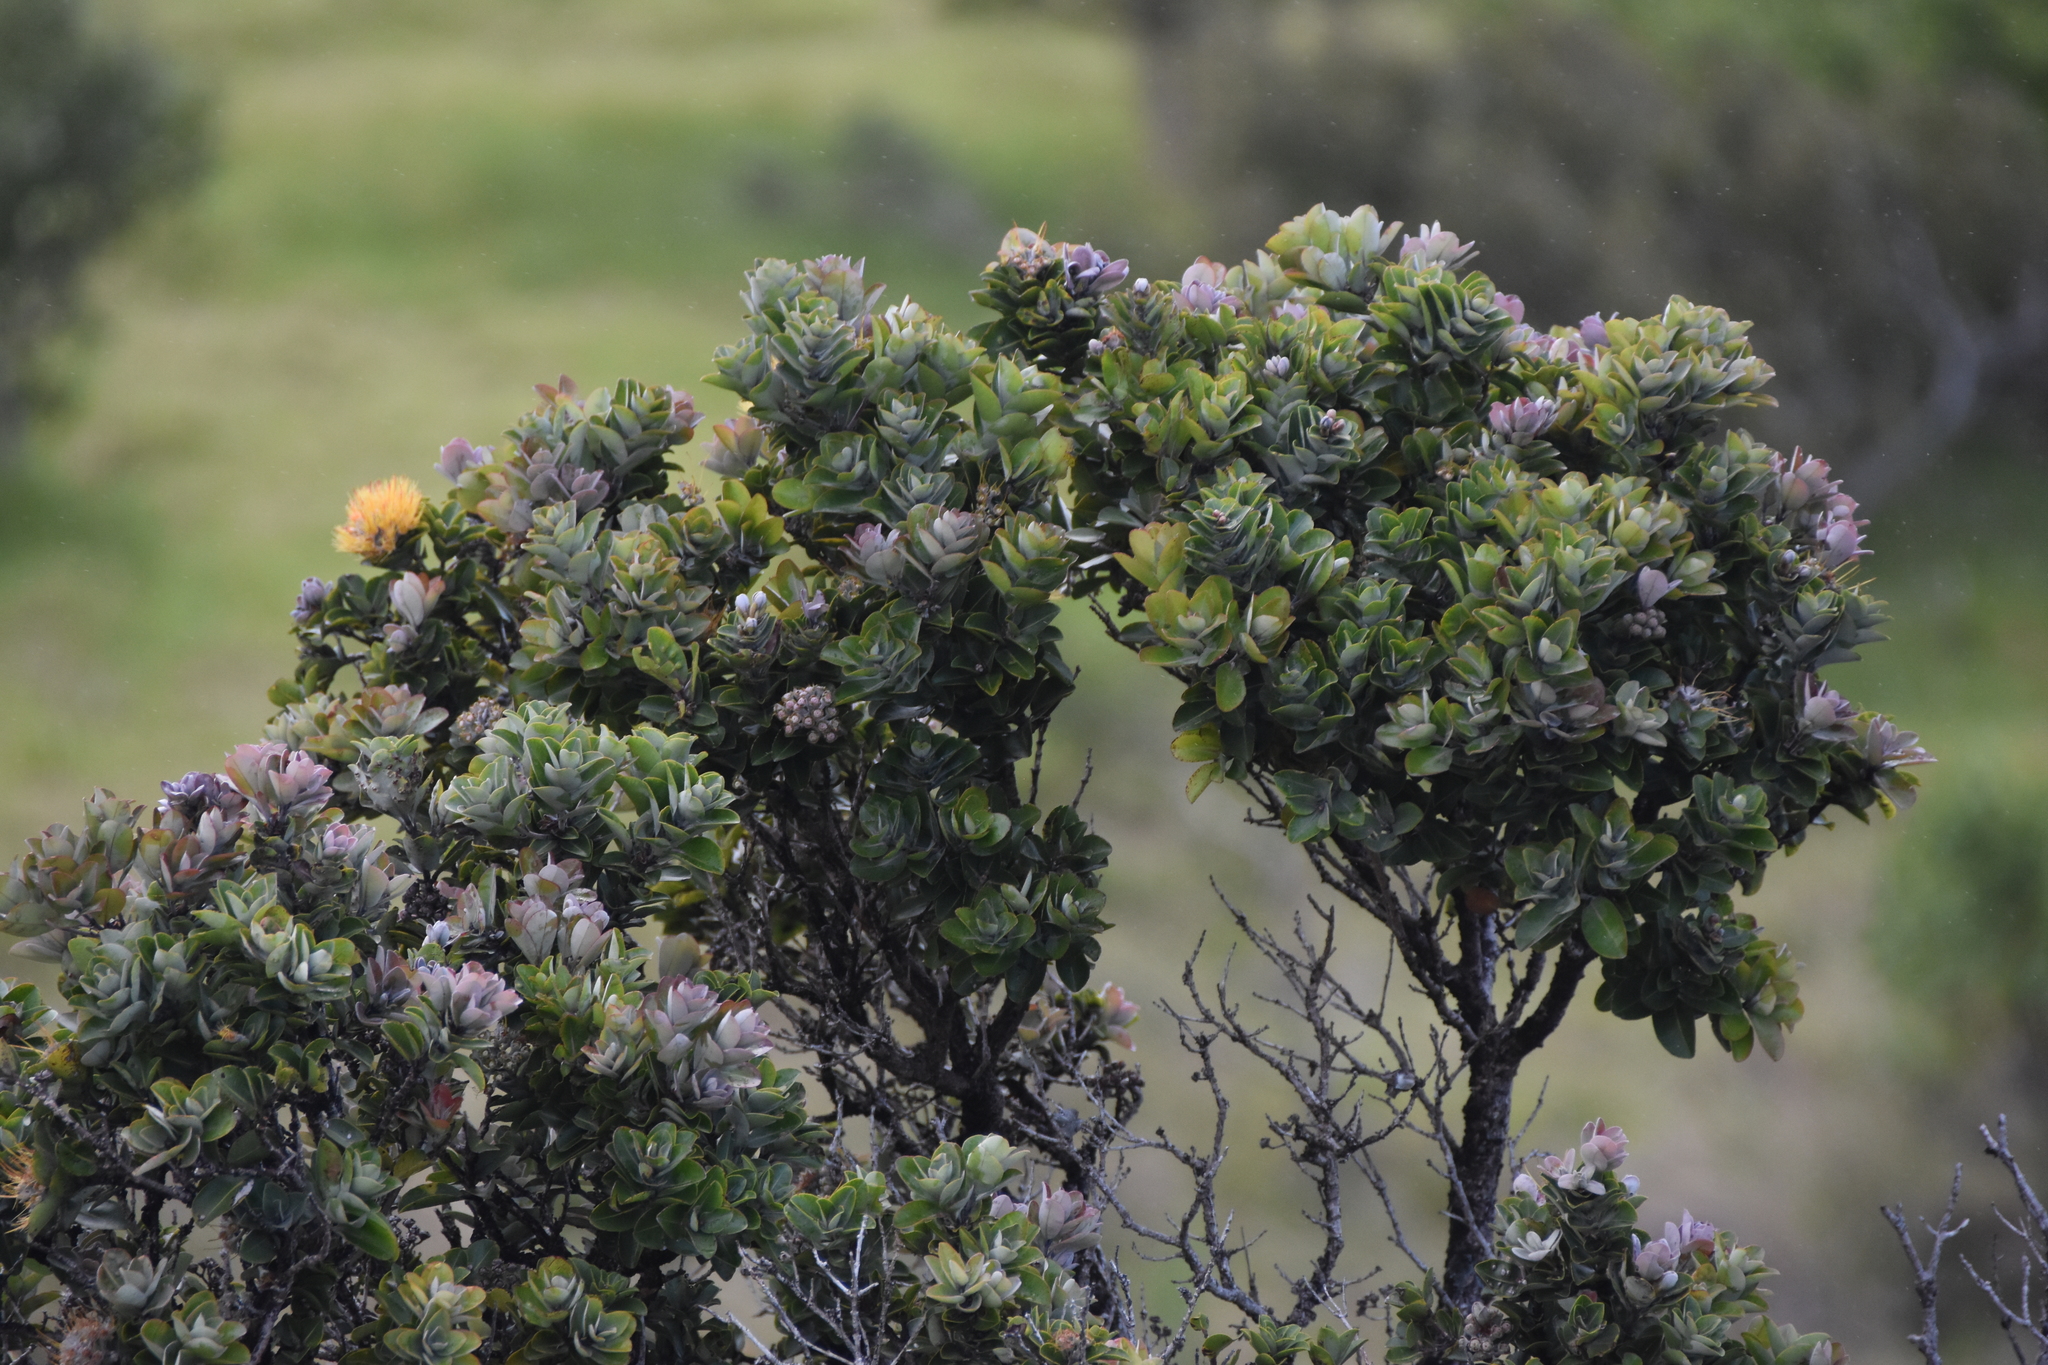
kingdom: Plantae
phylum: Tracheophyta
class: Magnoliopsida
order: Myrtales
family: Myrtaceae
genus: Metrosideros
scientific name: Metrosideros polymorpha
